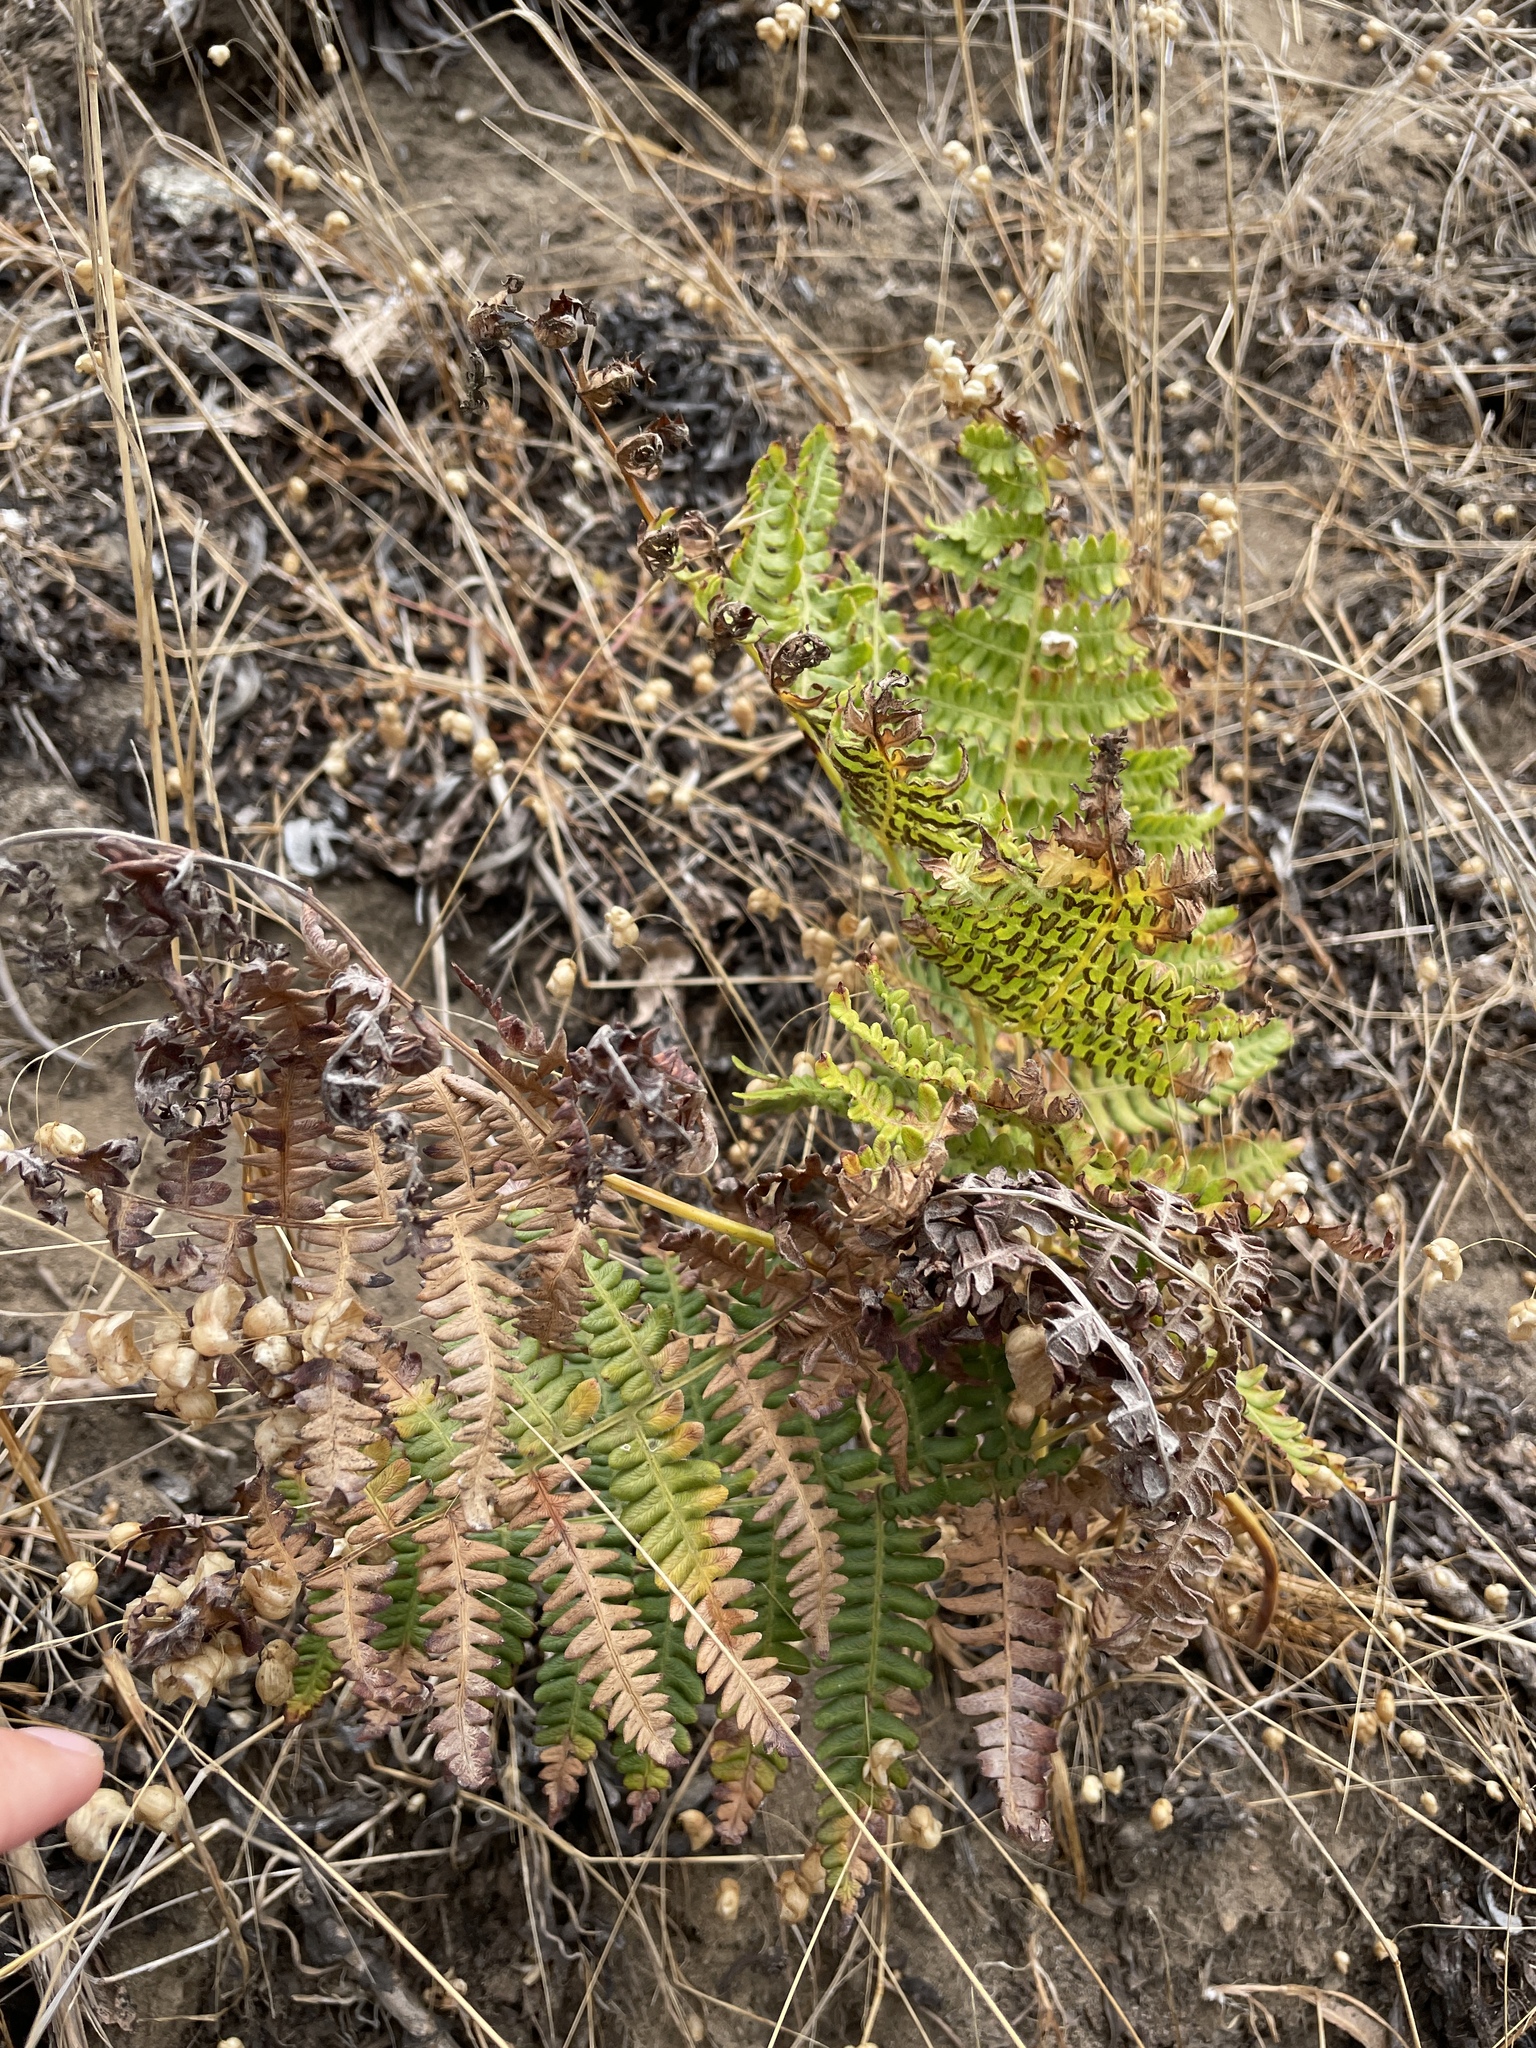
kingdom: Plantae
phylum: Tracheophyta
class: Polypodiopsida
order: Polypodiales
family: Dennstaedtiaceae
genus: Pteridium
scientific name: Pteridium aquilinum
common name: Bracken
